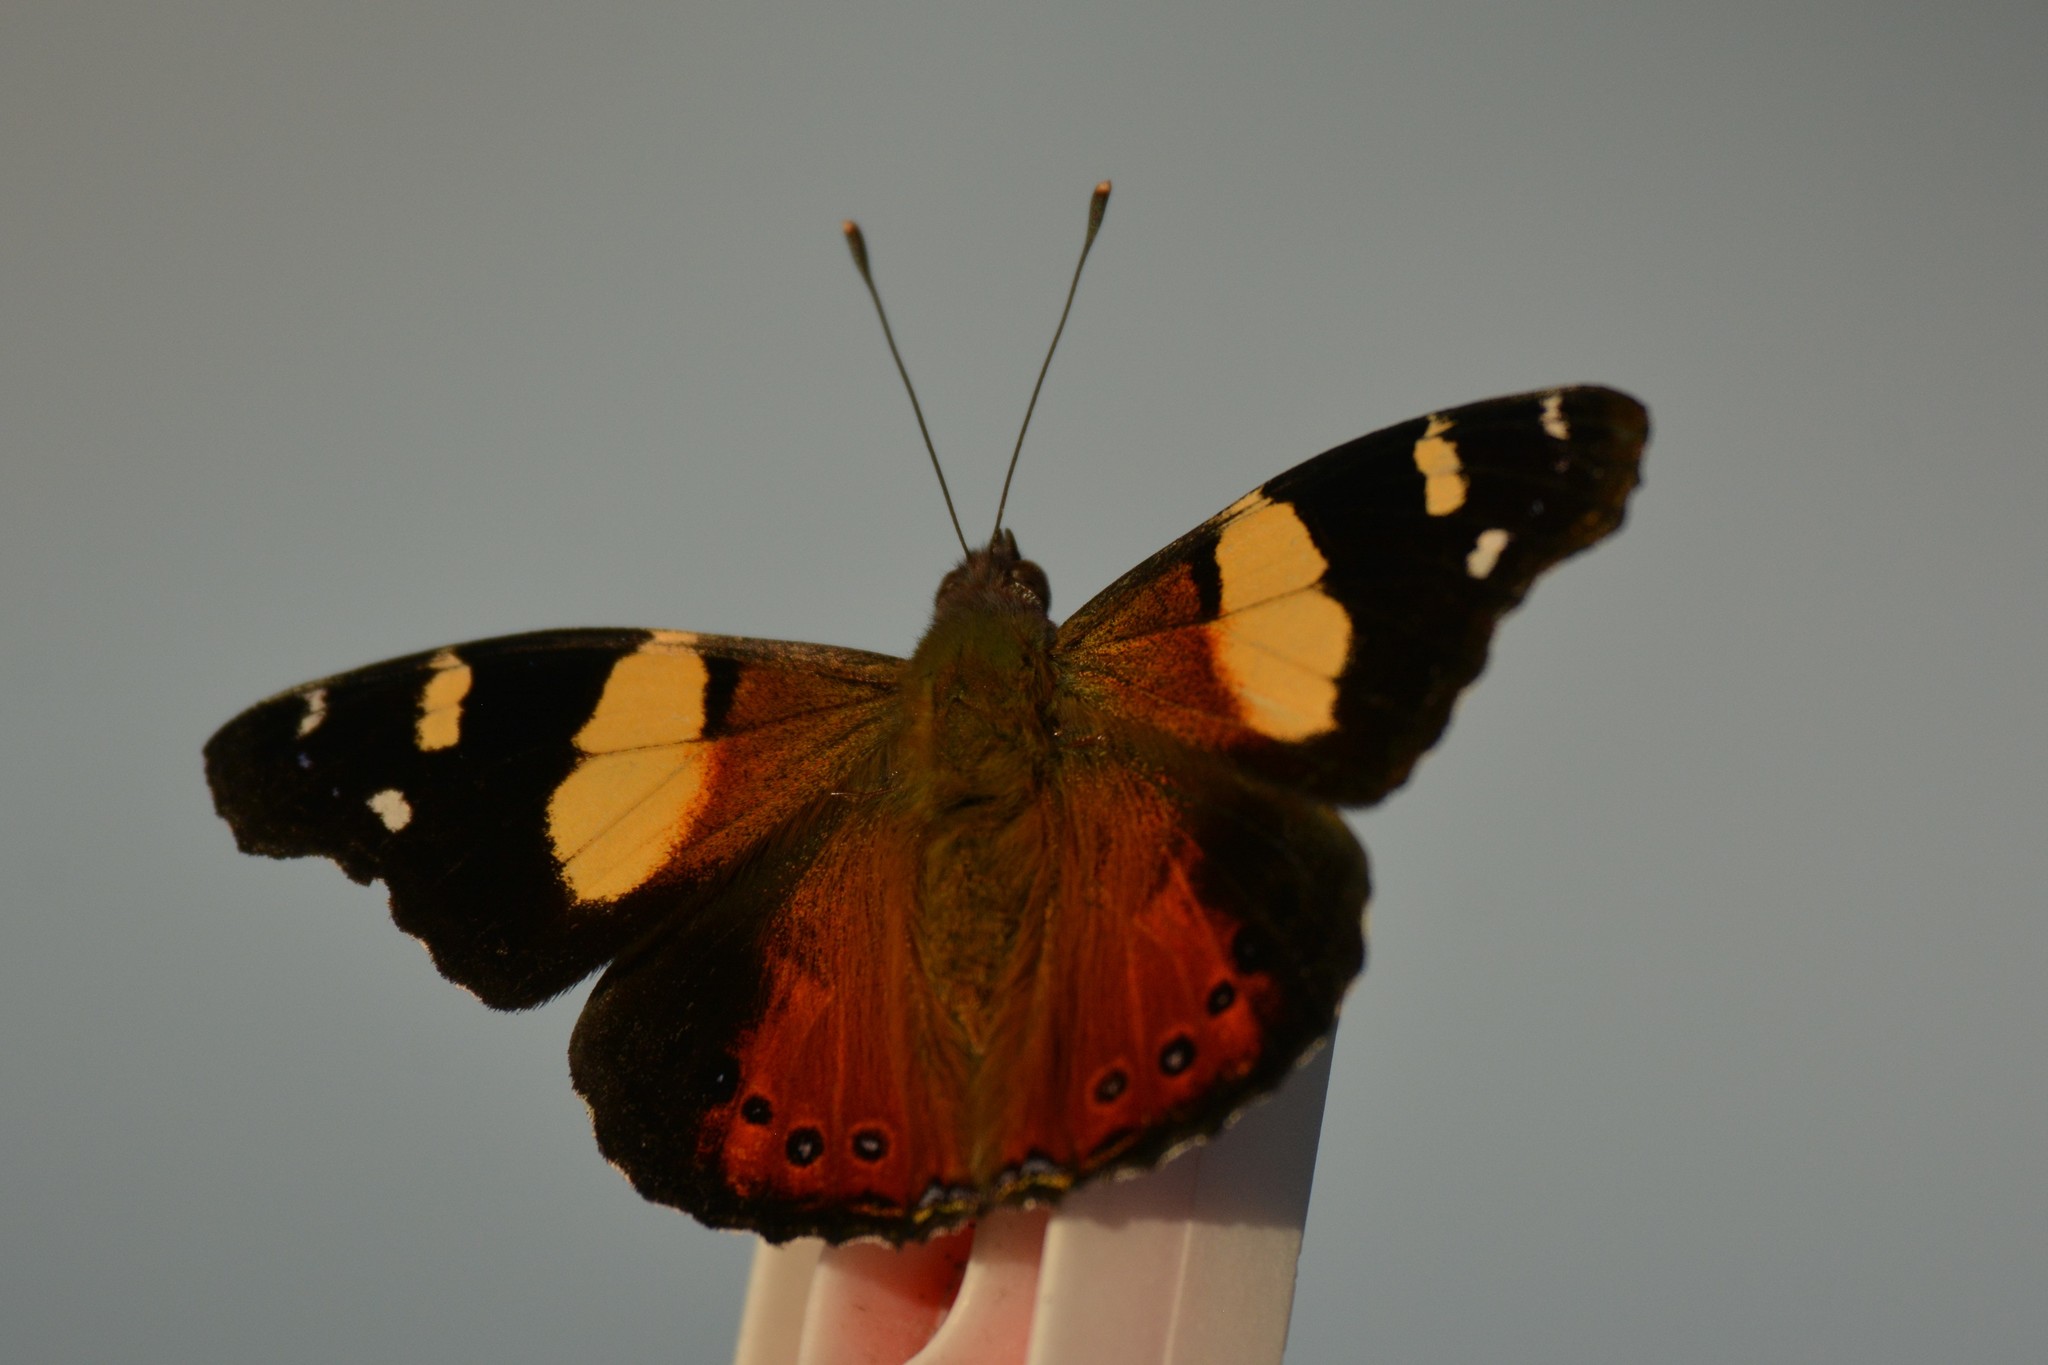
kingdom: Animalia
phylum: Arthropoda
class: Insecta
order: Lepidoptera
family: Nymphalidae
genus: Vanessa
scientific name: Vanessa itea
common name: Yellow admiral
